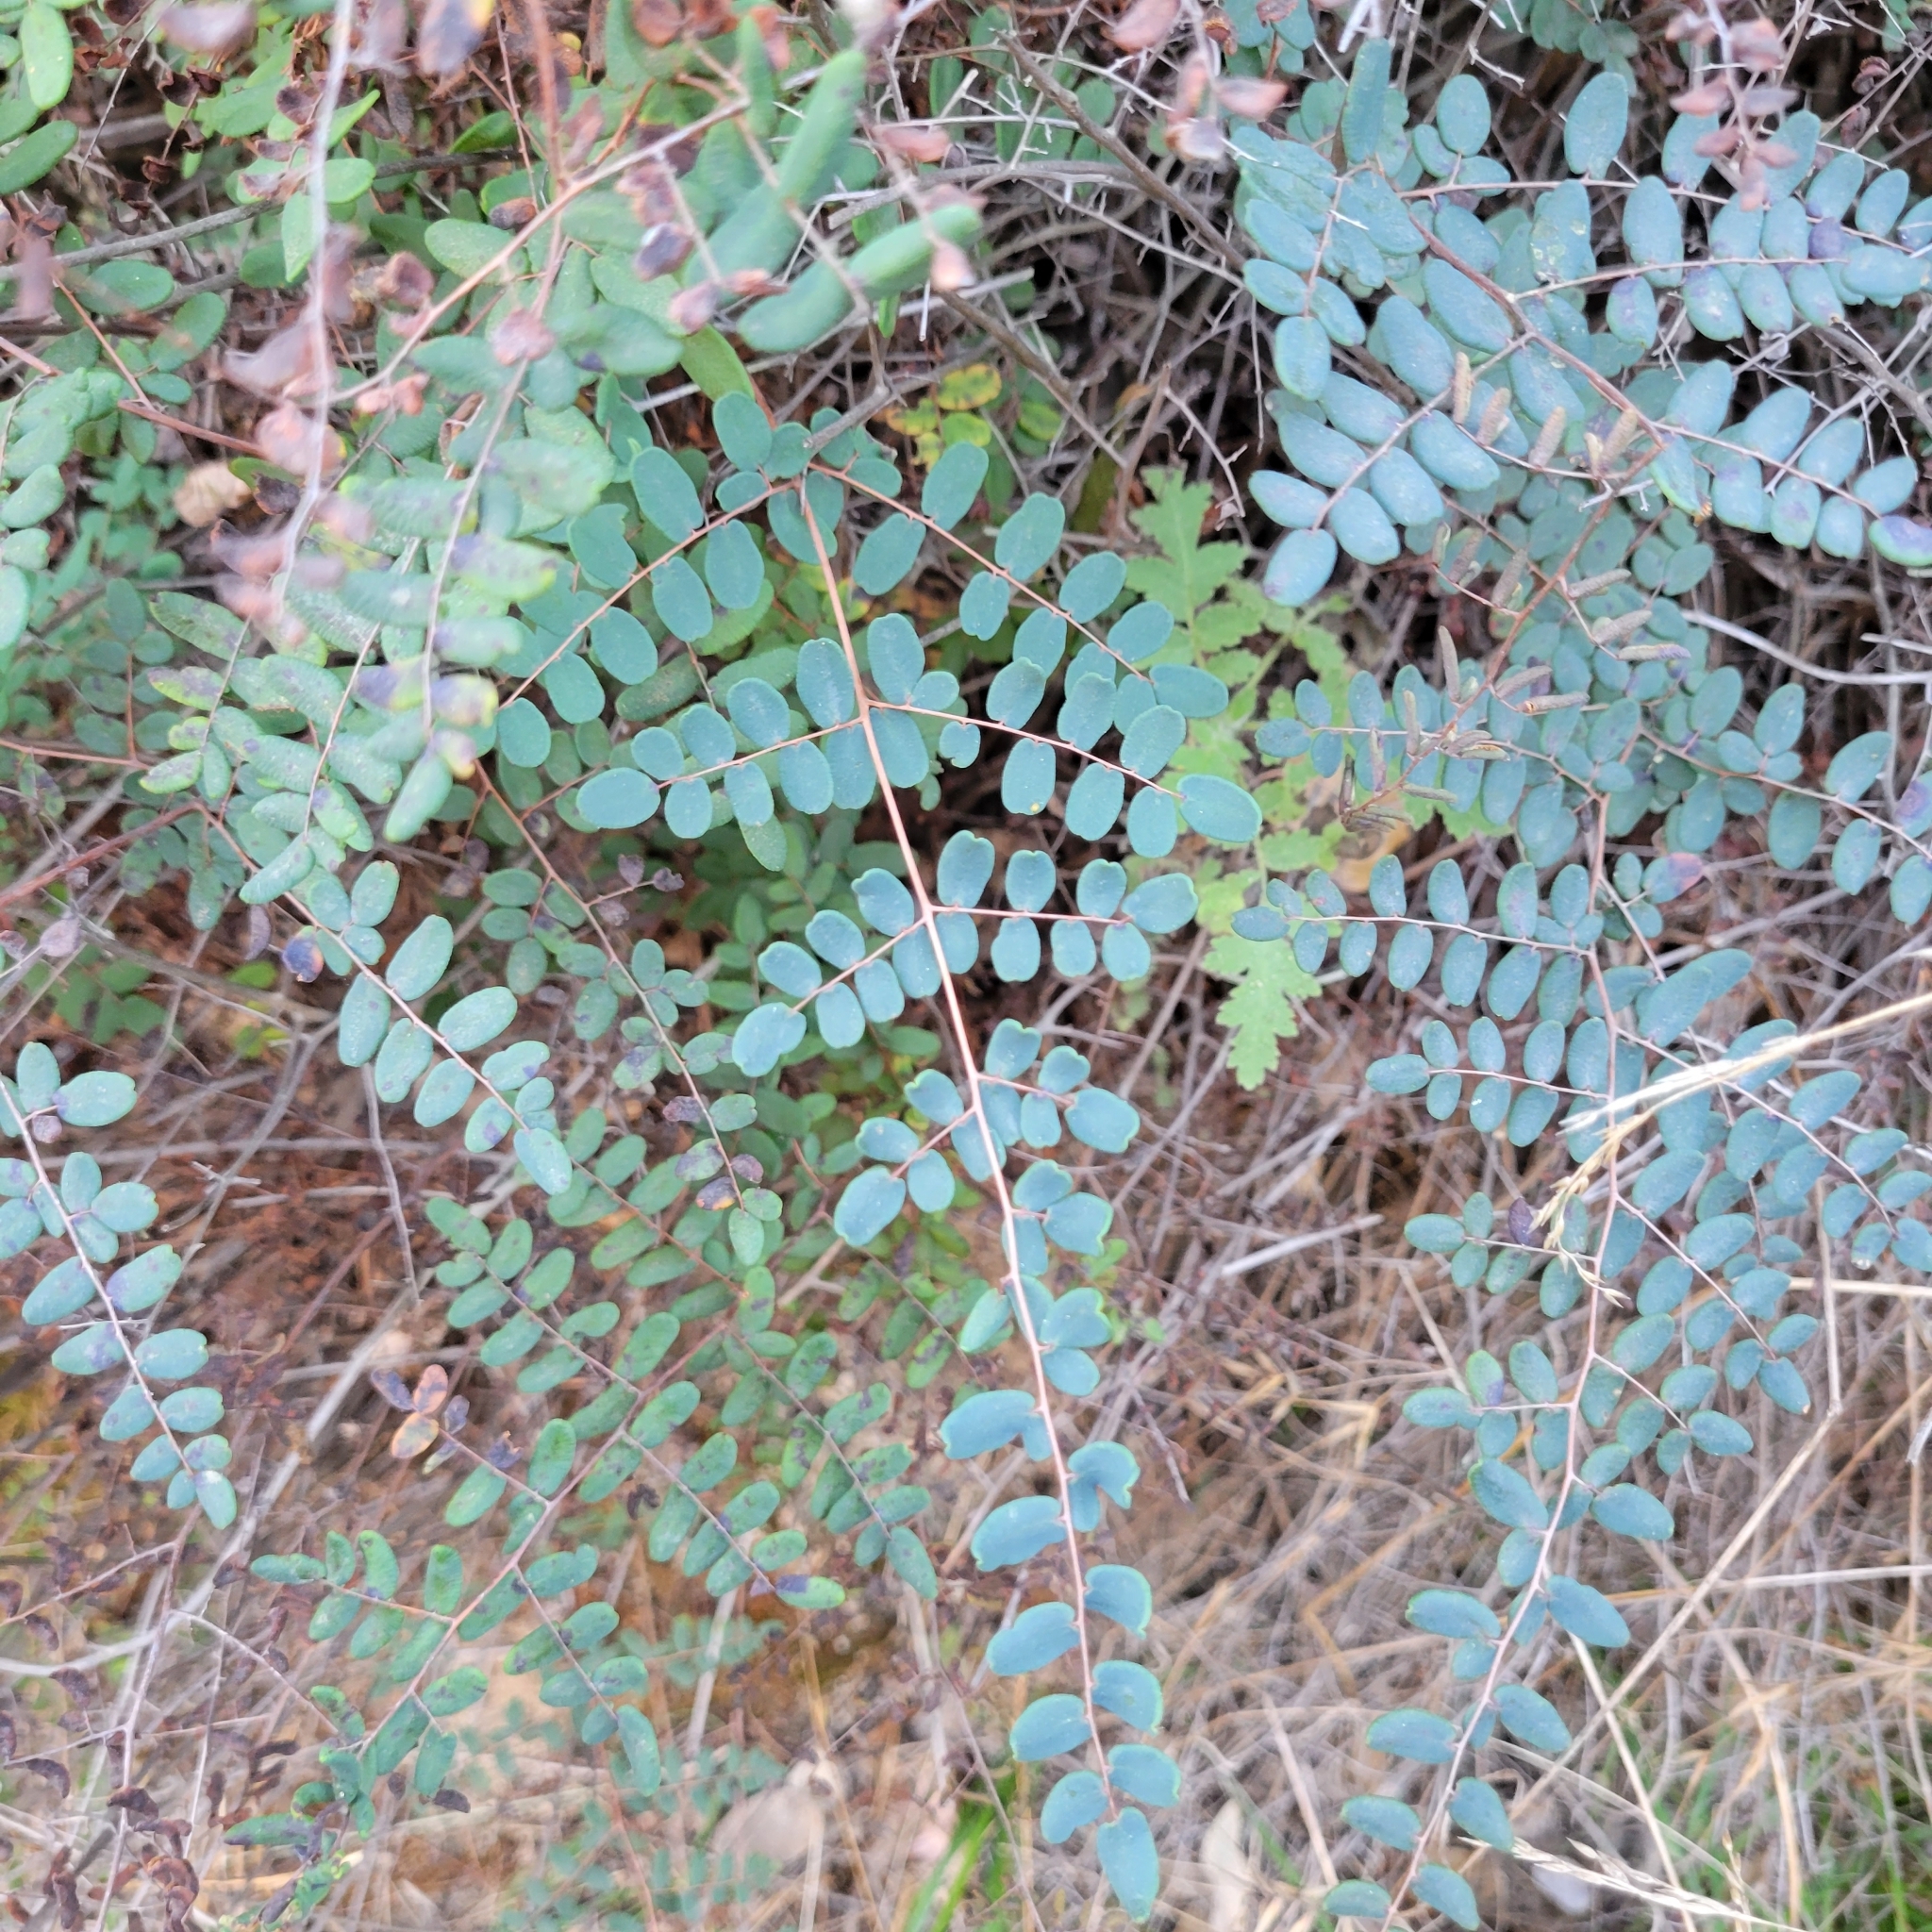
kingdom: Plantae
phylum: Tracheophyta
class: Polypodiopsida
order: Polypodiales
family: Pteridaceae
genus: Pellaea
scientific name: Pellaea andromedifolia
